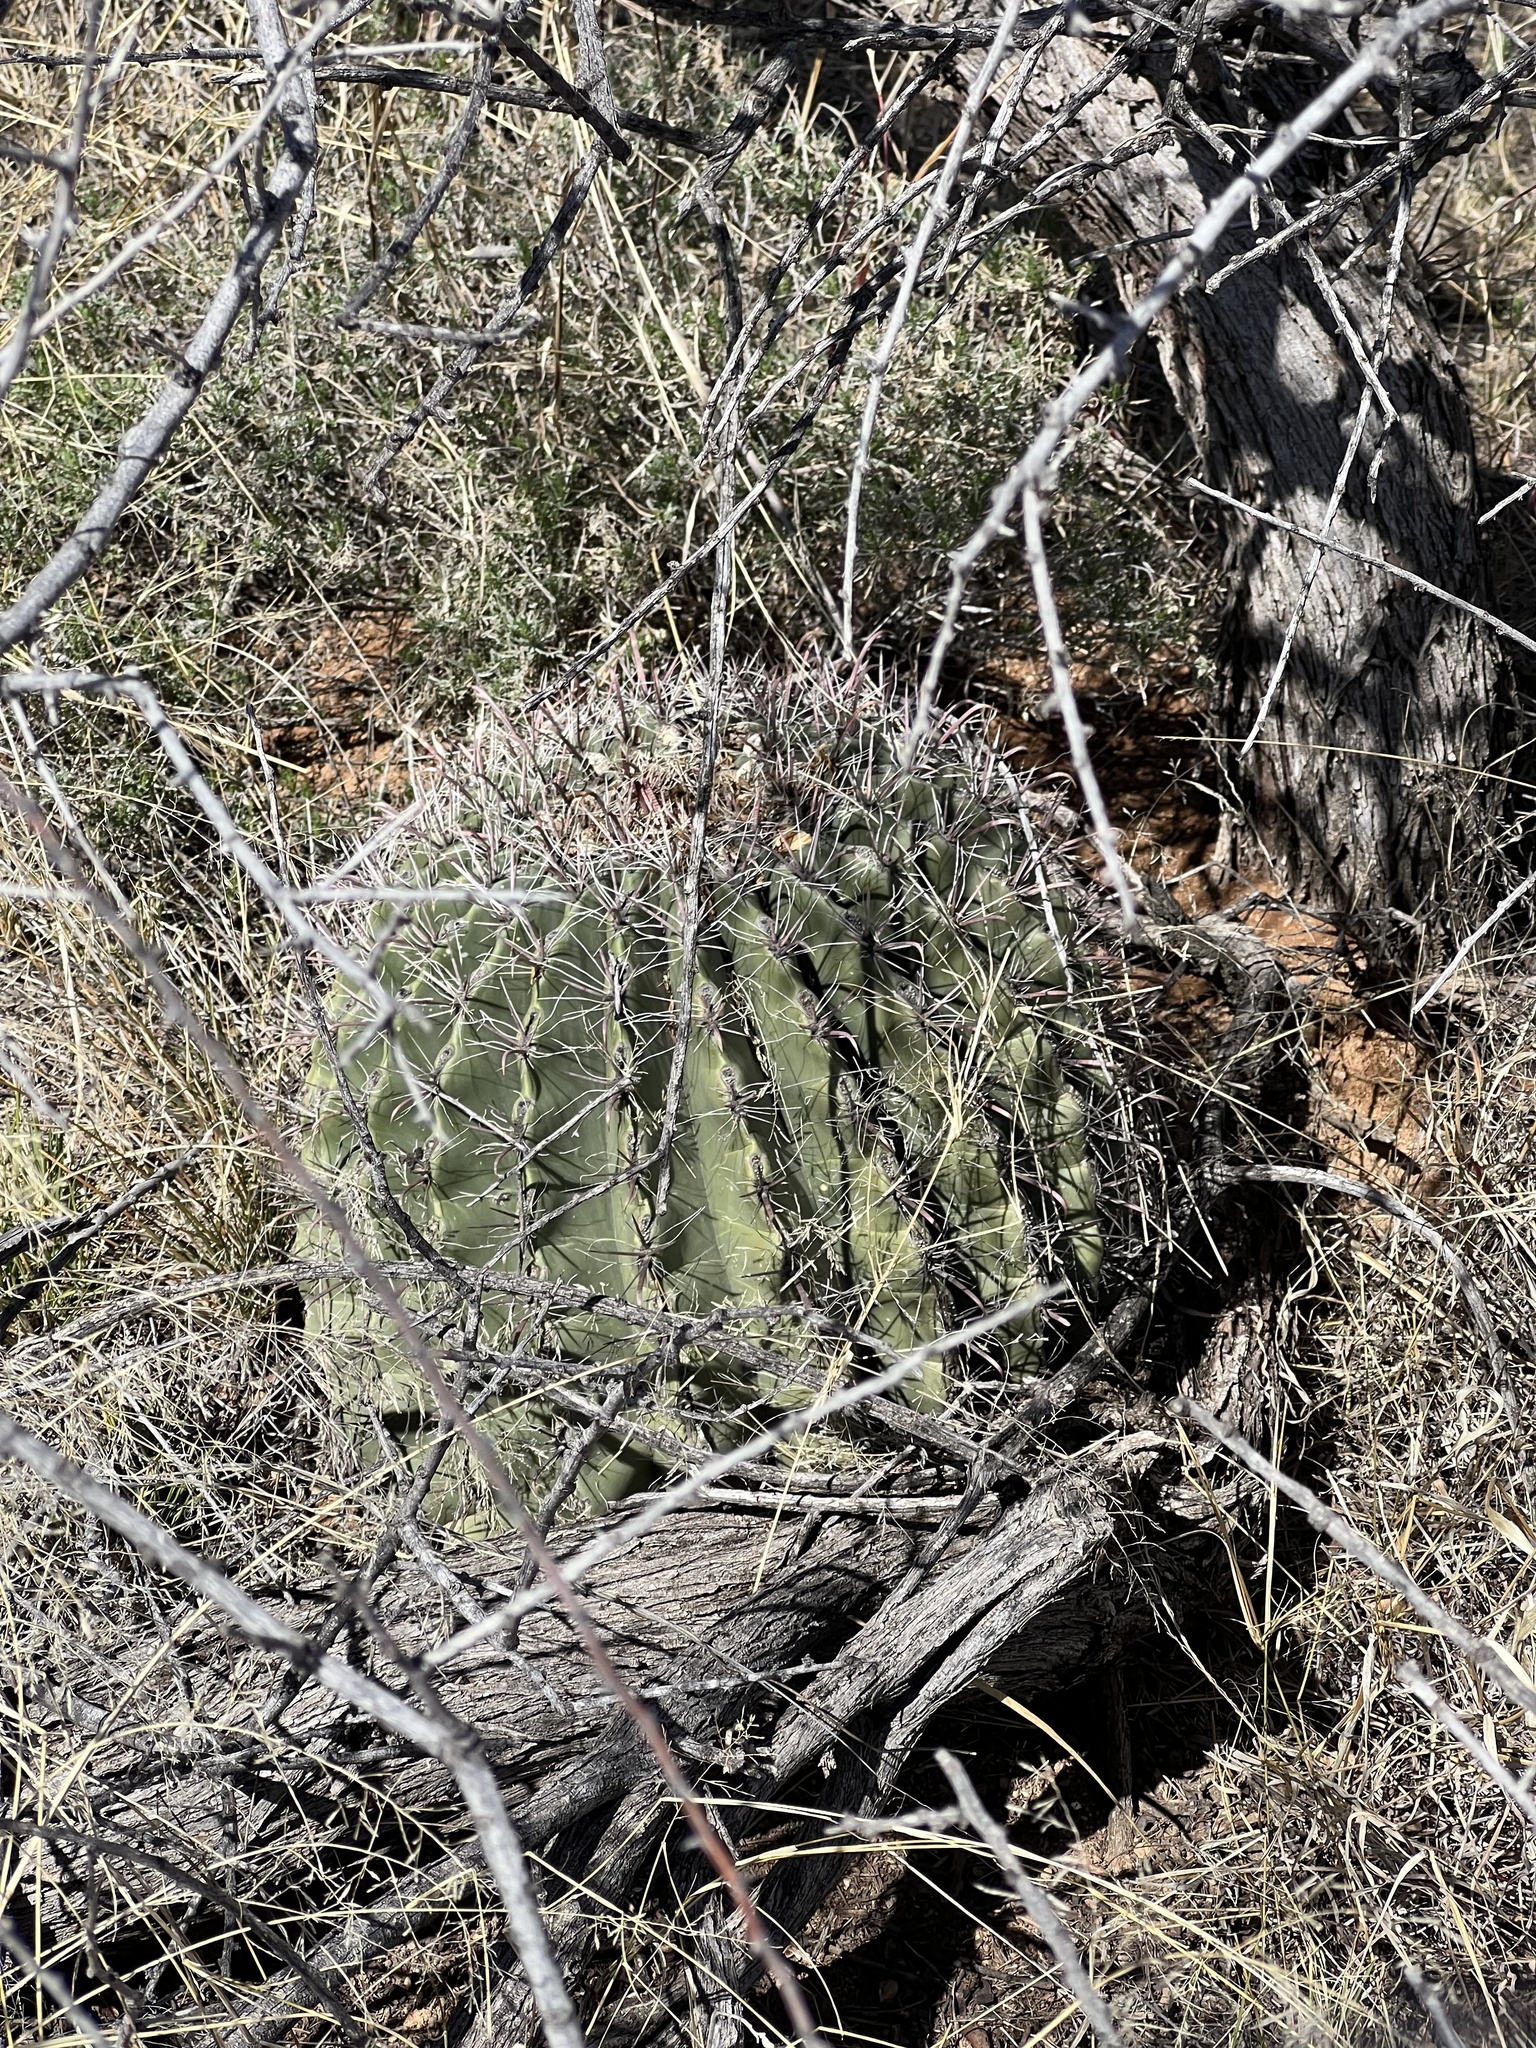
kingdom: Plantae
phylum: Tracheophyta
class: Magnoliopsida
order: Caryophyllales
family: Cactaceae
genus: Ferocactus
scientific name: Ferocactus wislizeni
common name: Candy barrel cactus
